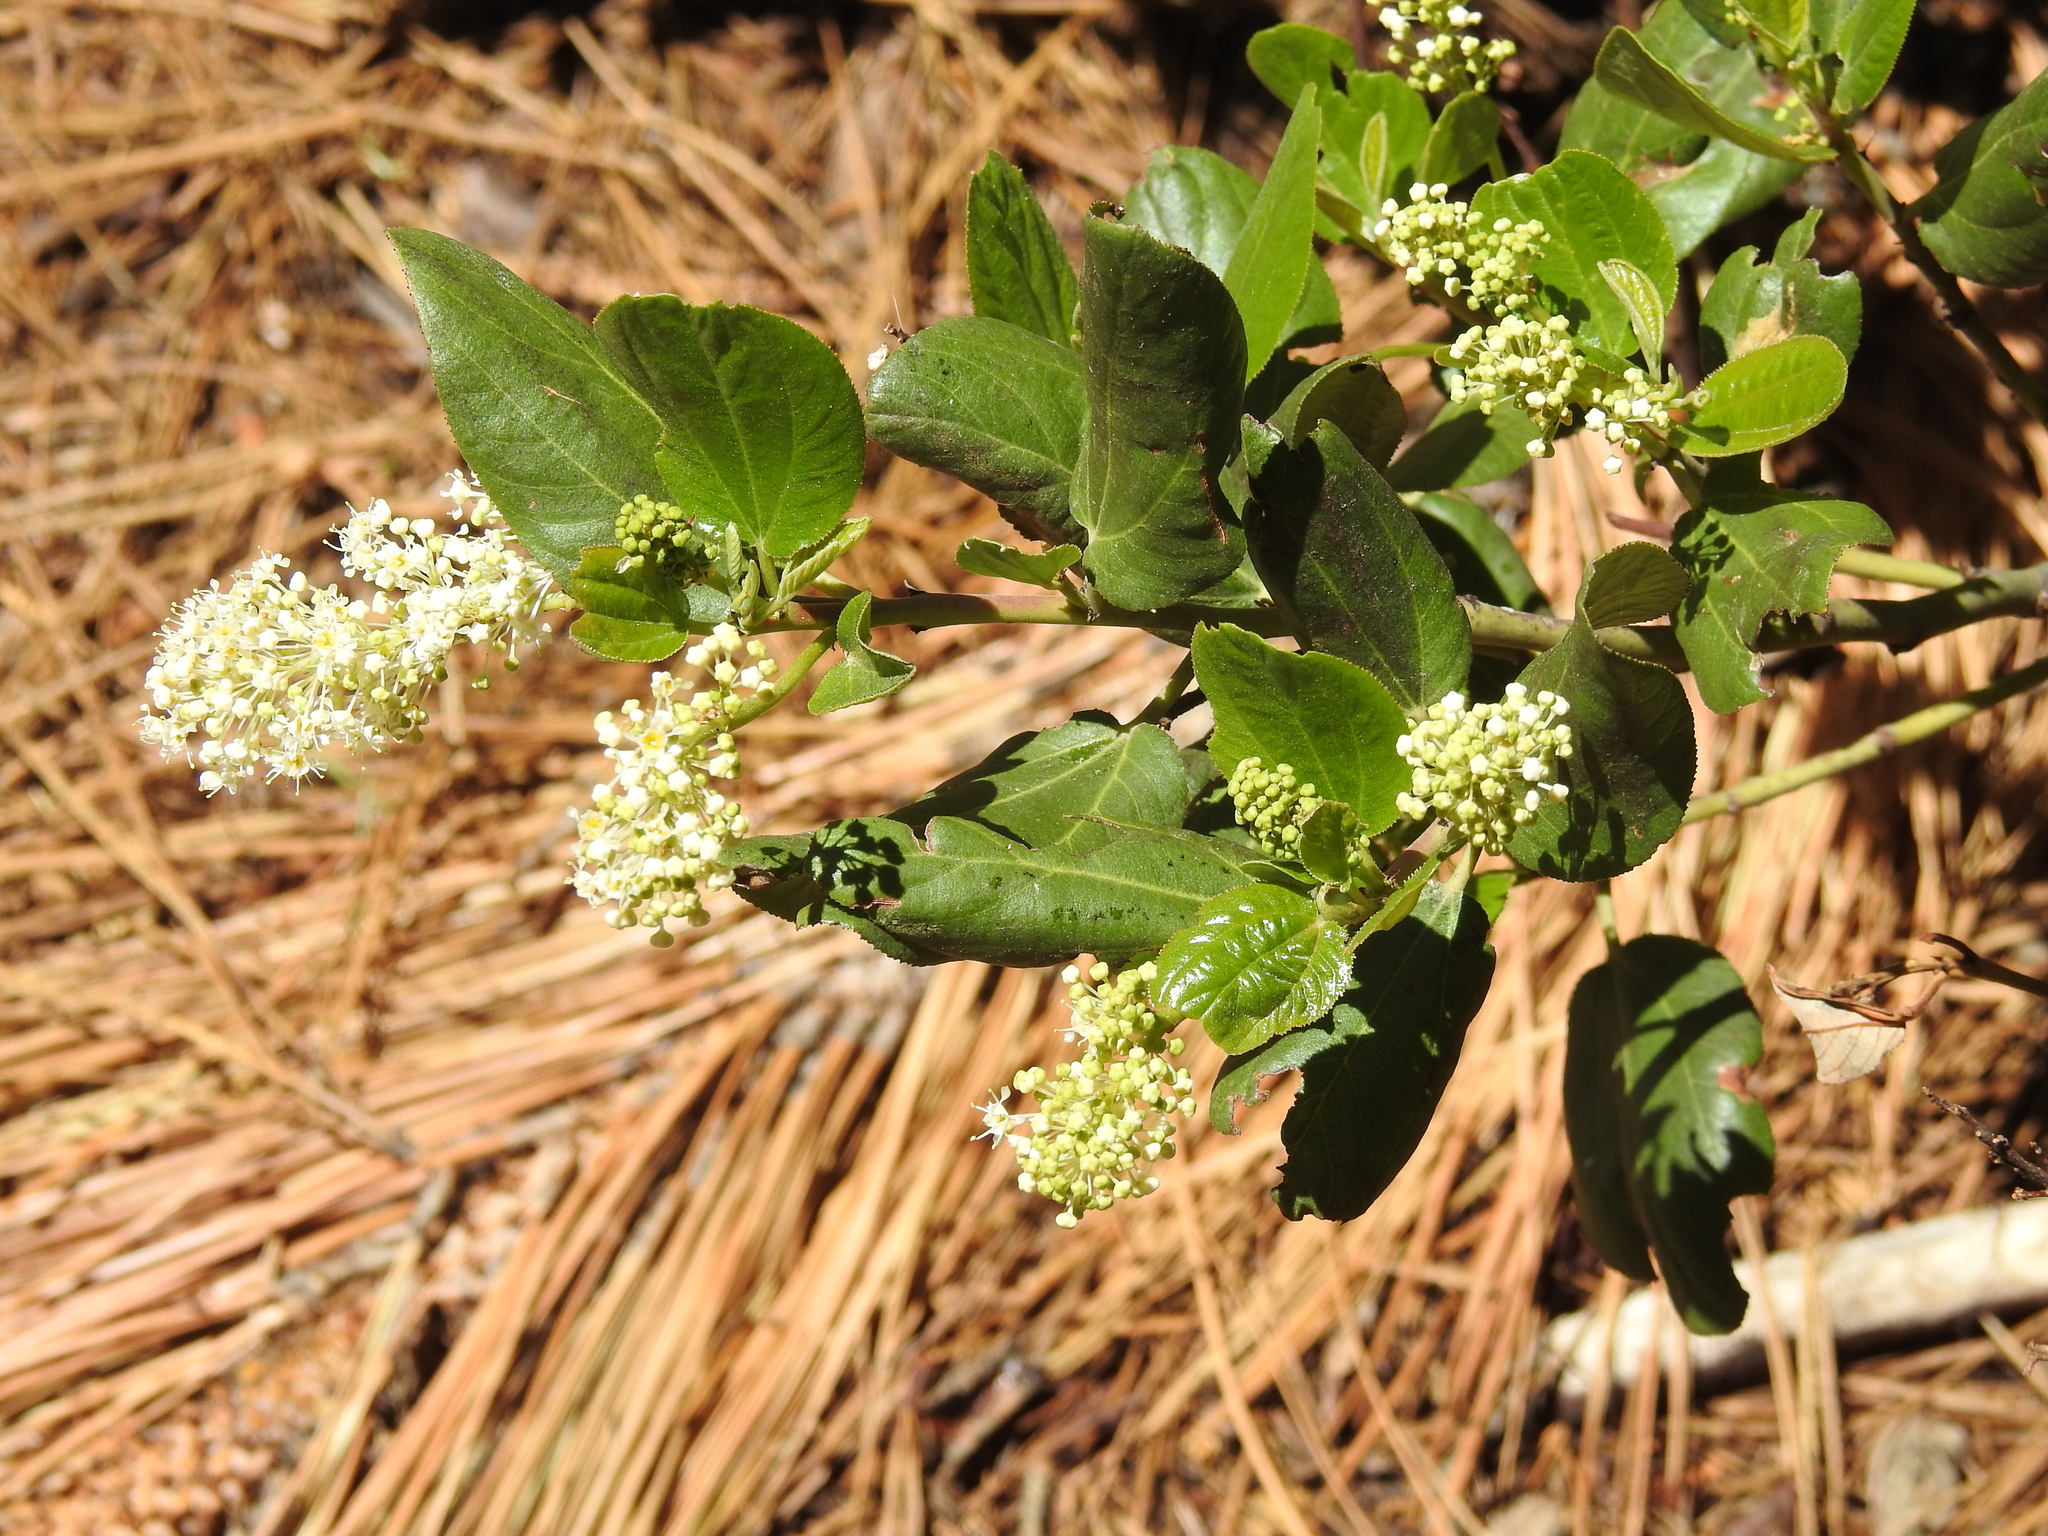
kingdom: Plantae
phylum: Tracheophyta
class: Magnoliopsida
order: Rosales
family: Rhamnaceae
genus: Ceanothus
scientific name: Ceanothus velutinus
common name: Snowbrush
